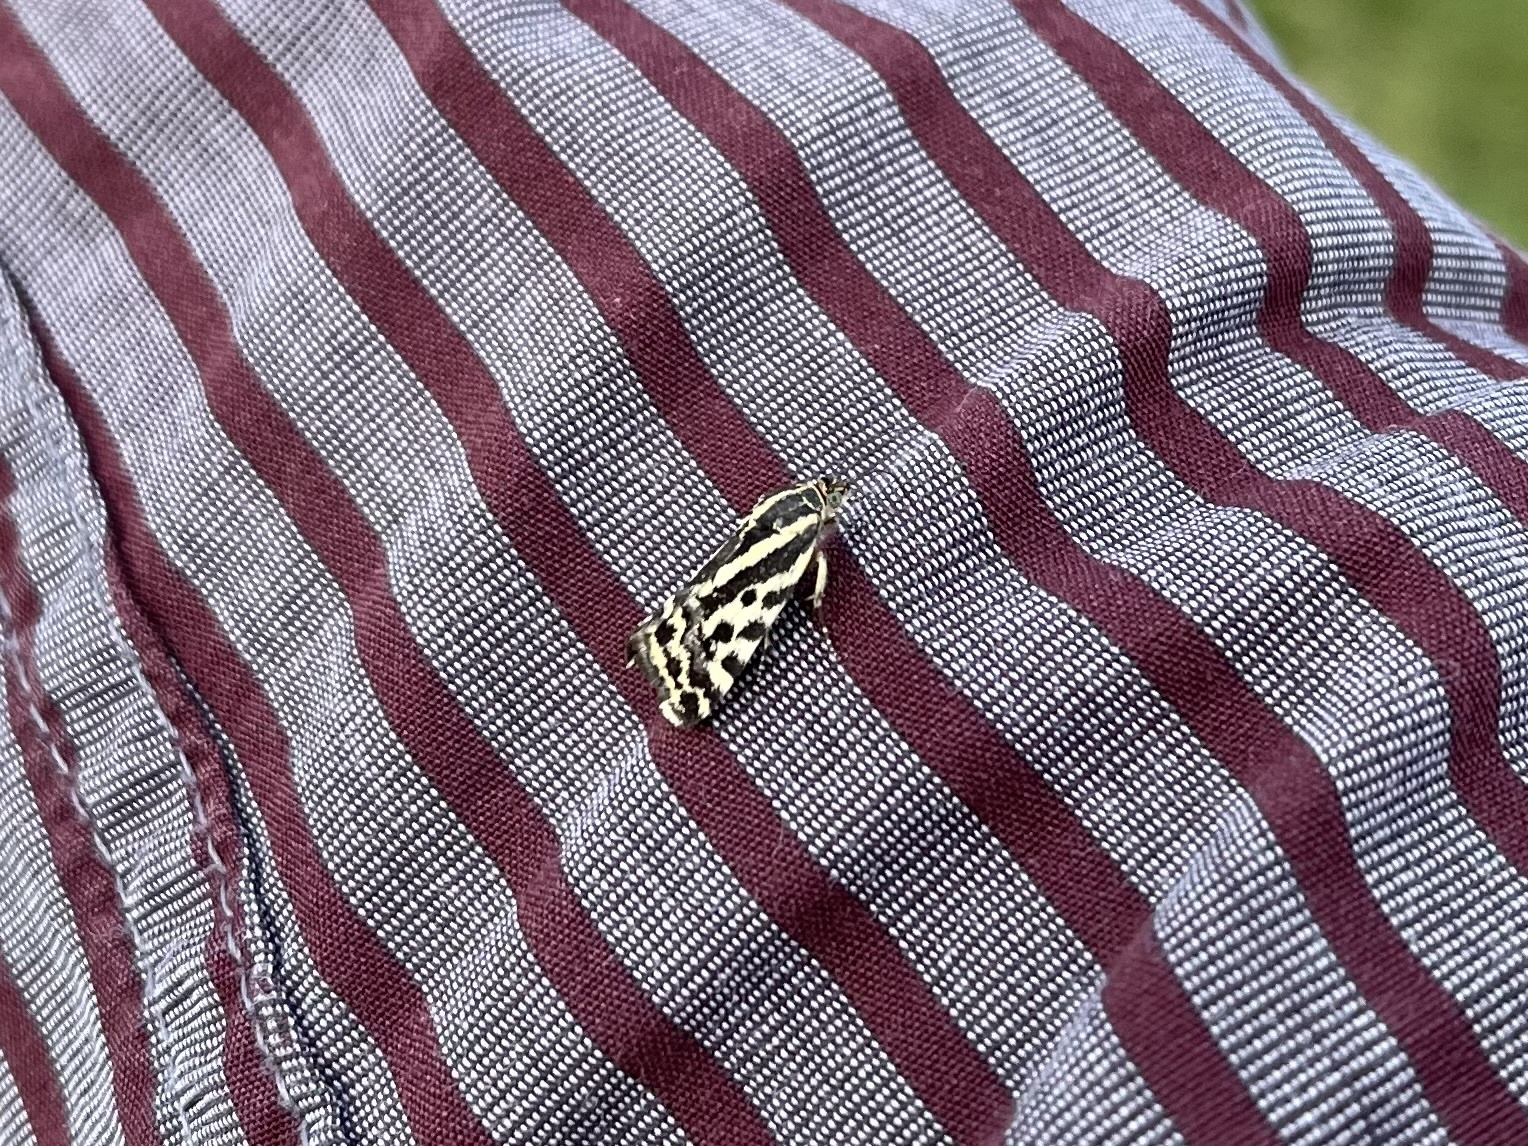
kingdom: Animalia
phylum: Arthropoda
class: Insecta
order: Lepidoptera
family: Noctuidae
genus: Acontia
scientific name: Acontia trabealis
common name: Spotted sulphur
